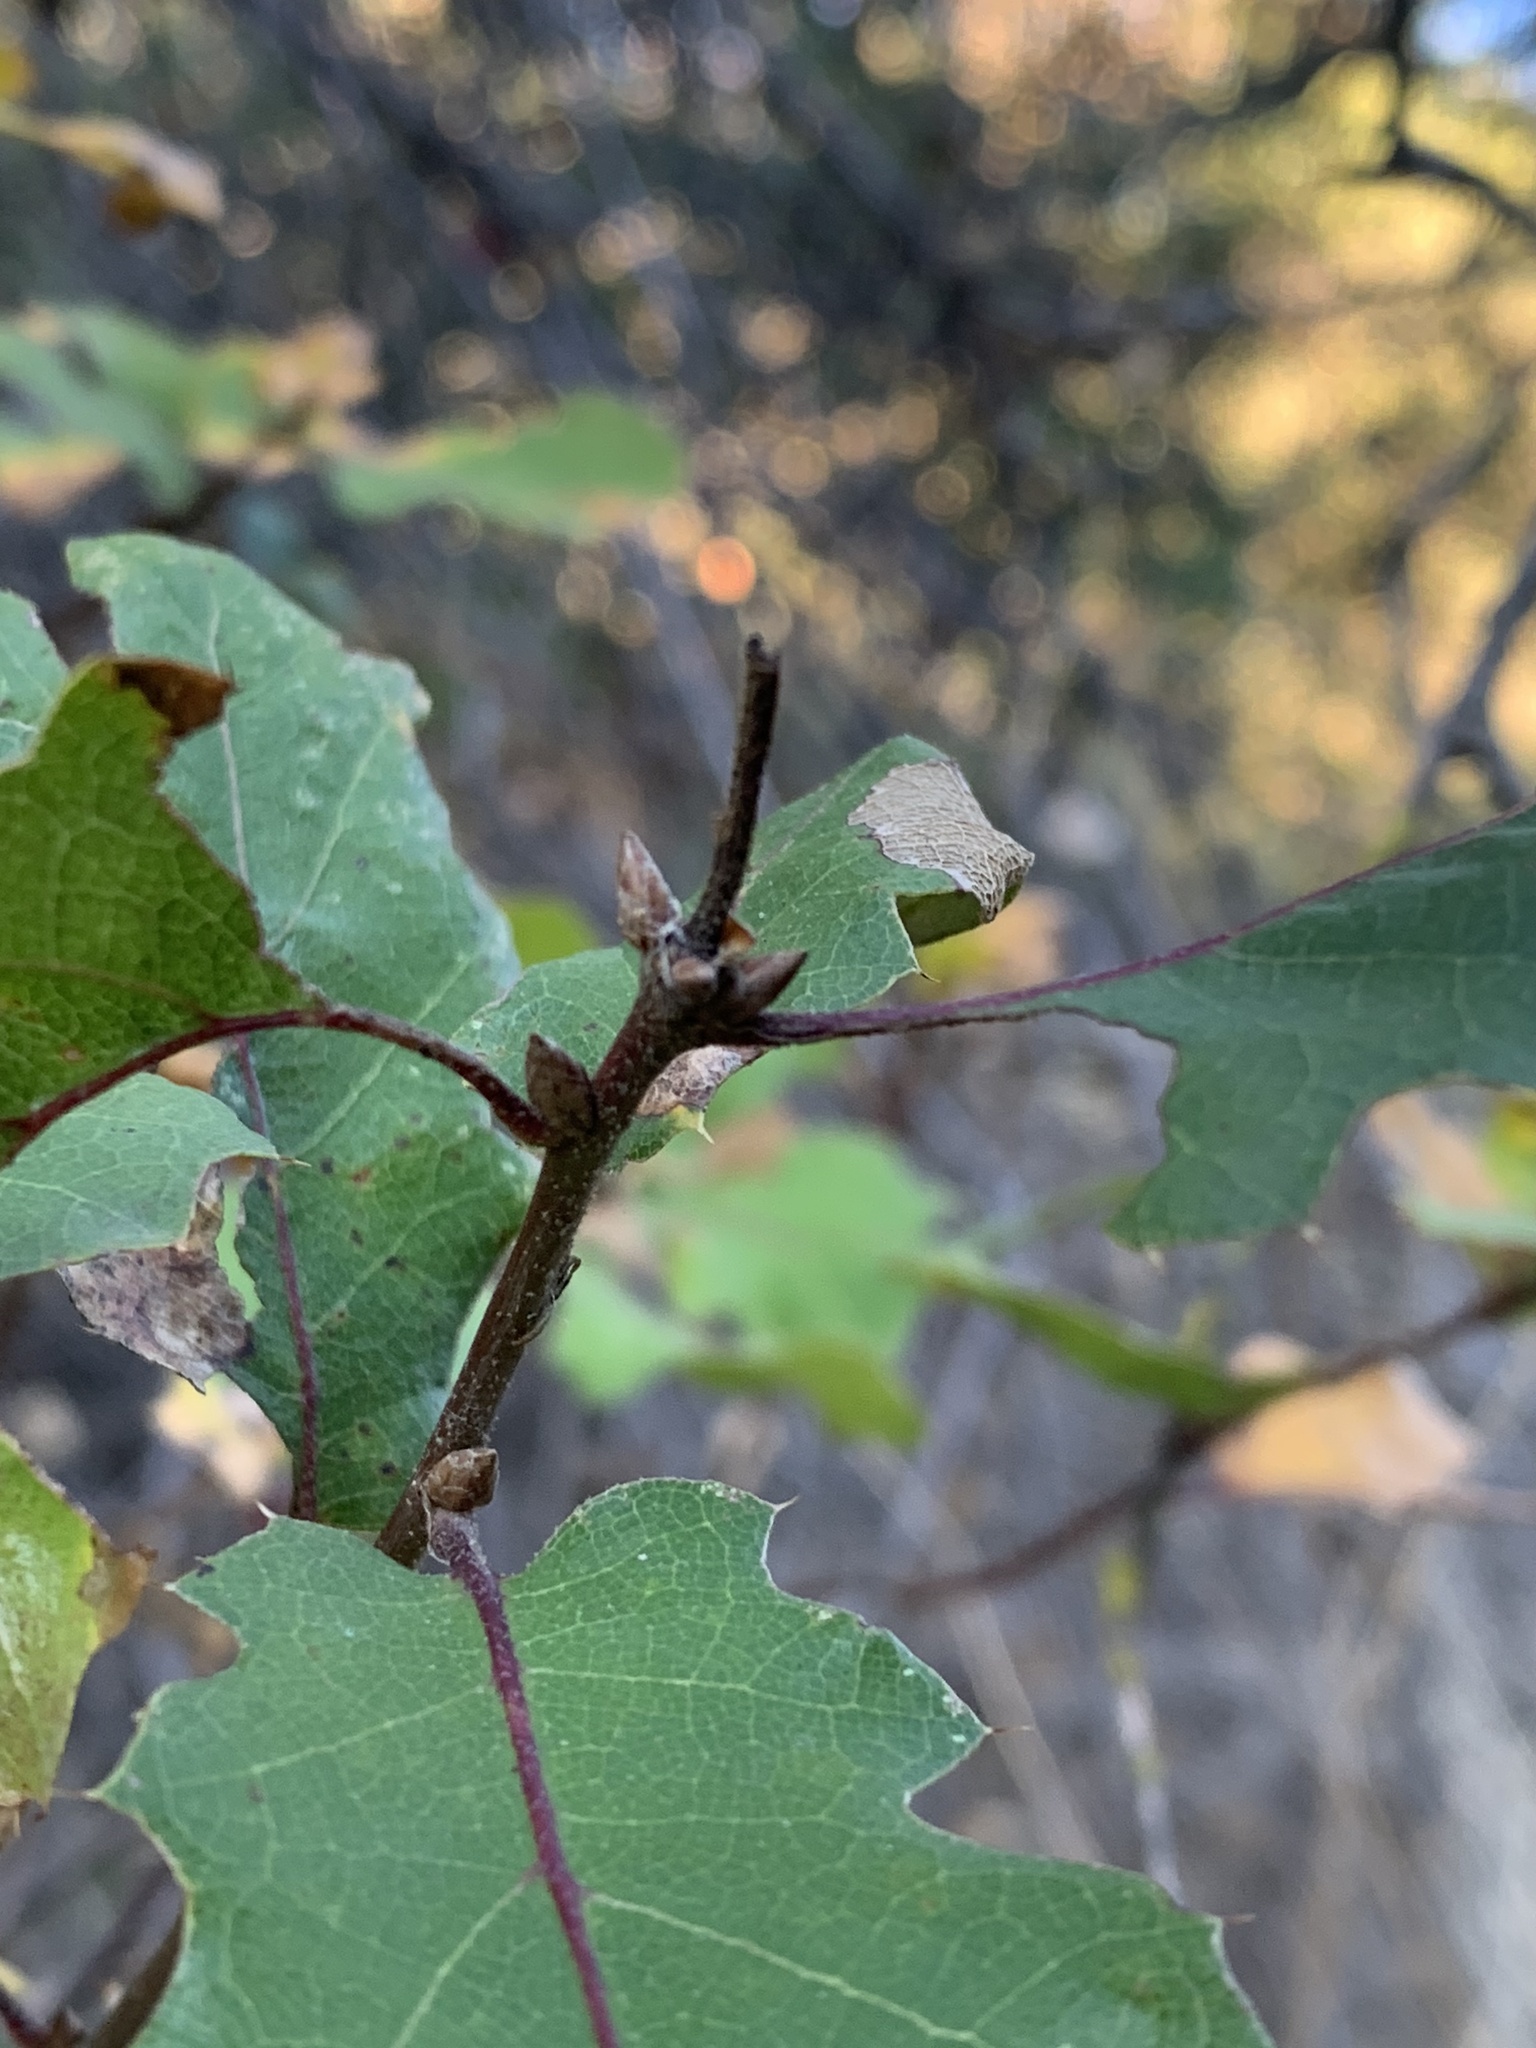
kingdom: Plantae
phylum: Tracheophyta
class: Magnoliopsida
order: Fagales
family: Fagaceae
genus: Quercus
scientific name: Quercus morehus
